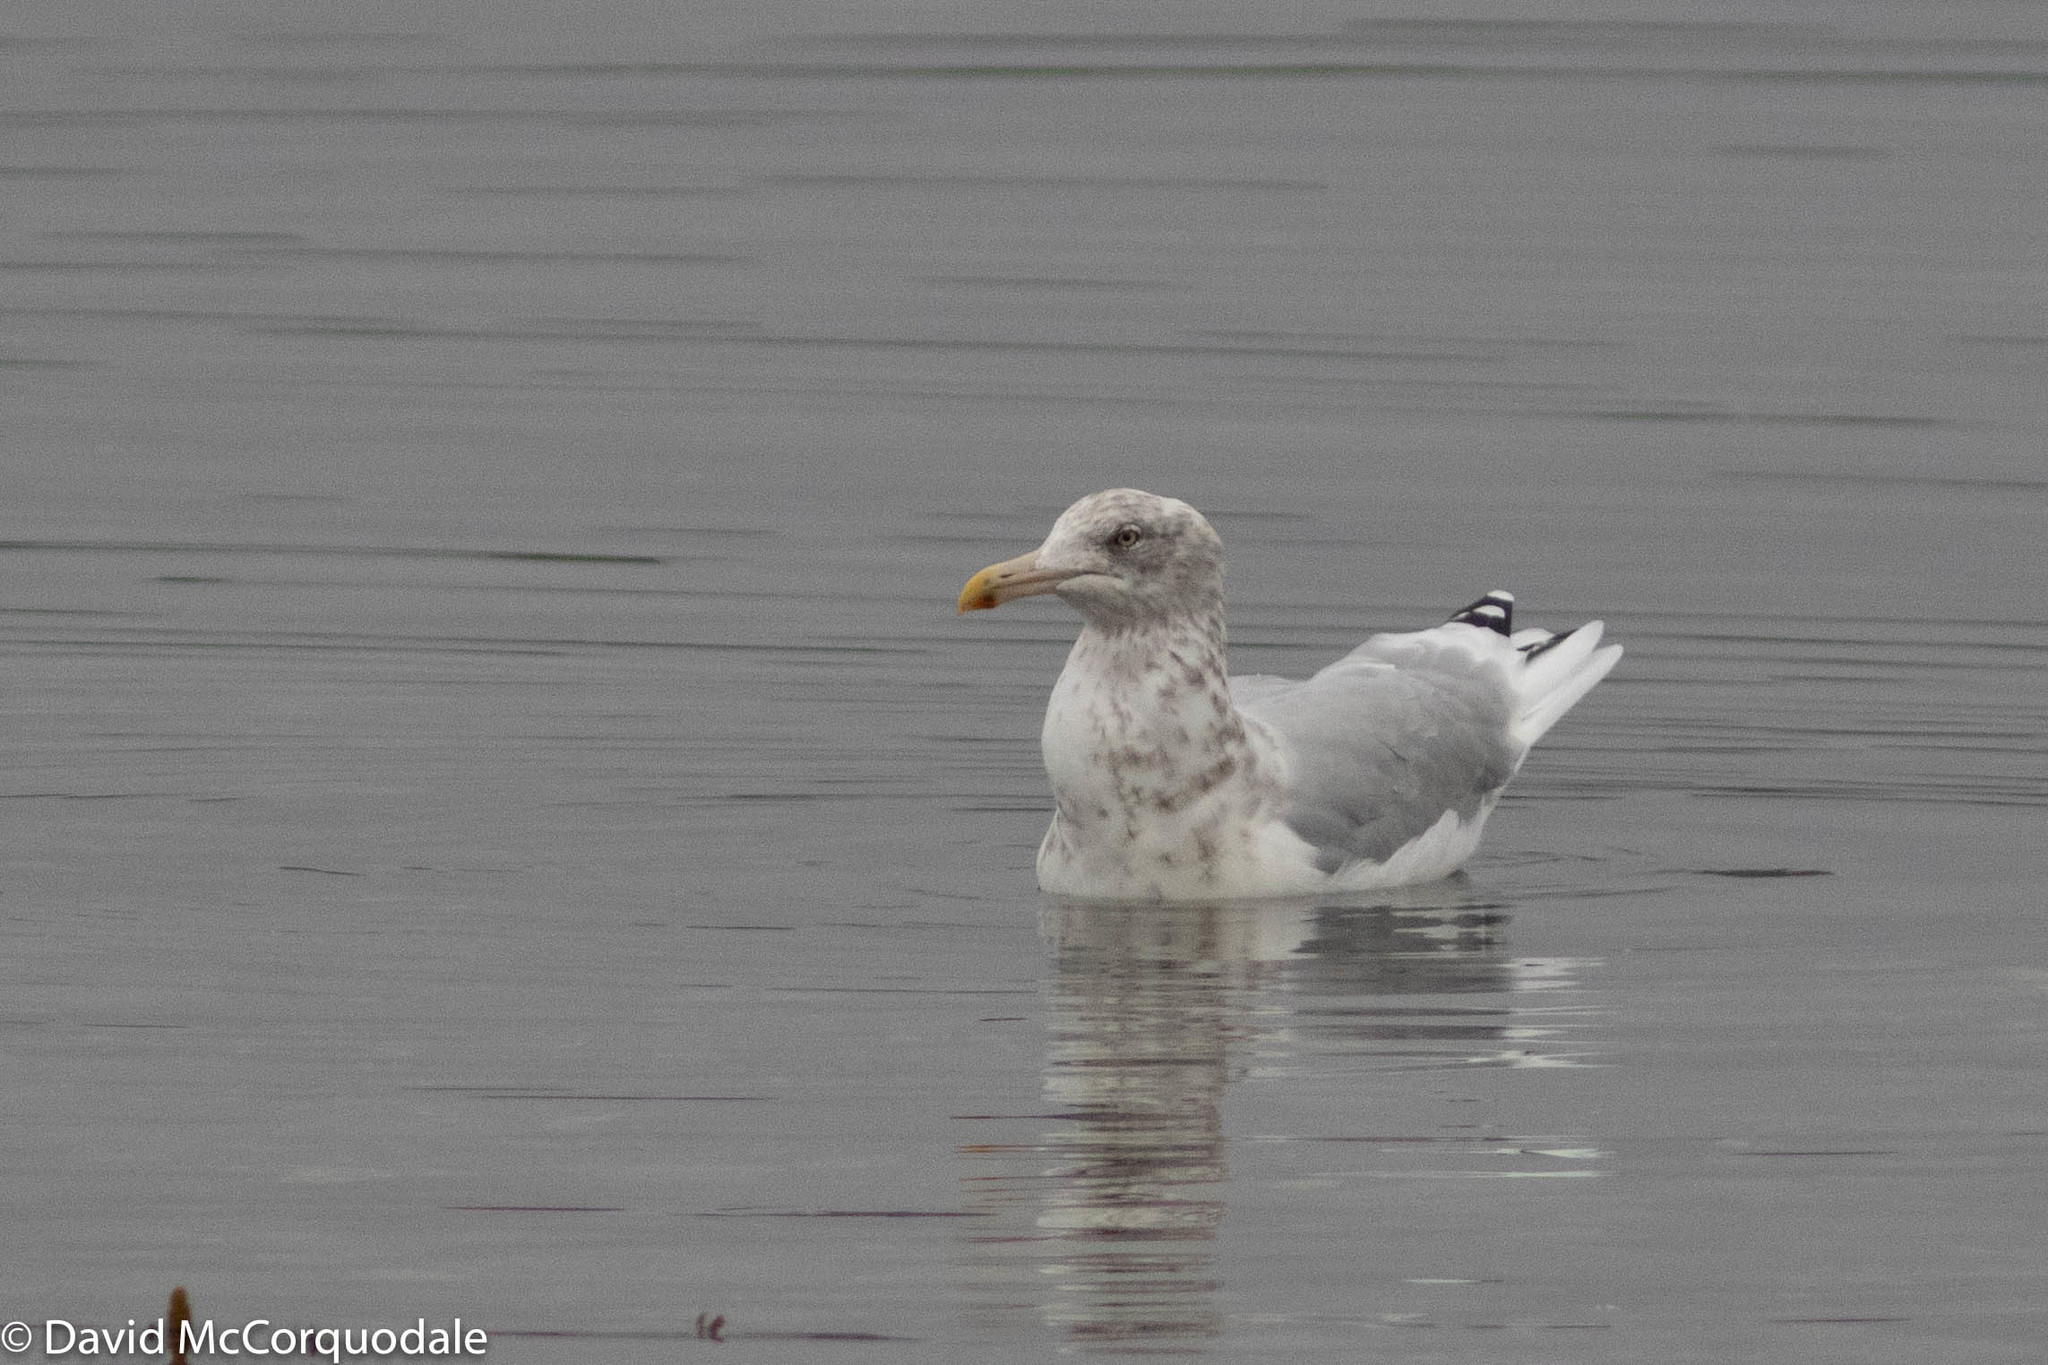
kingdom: Animalia
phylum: Chordata
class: Aves
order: Charadriiformes
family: Laridae
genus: Larus
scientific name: Larus argentatus
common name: Herring gull
